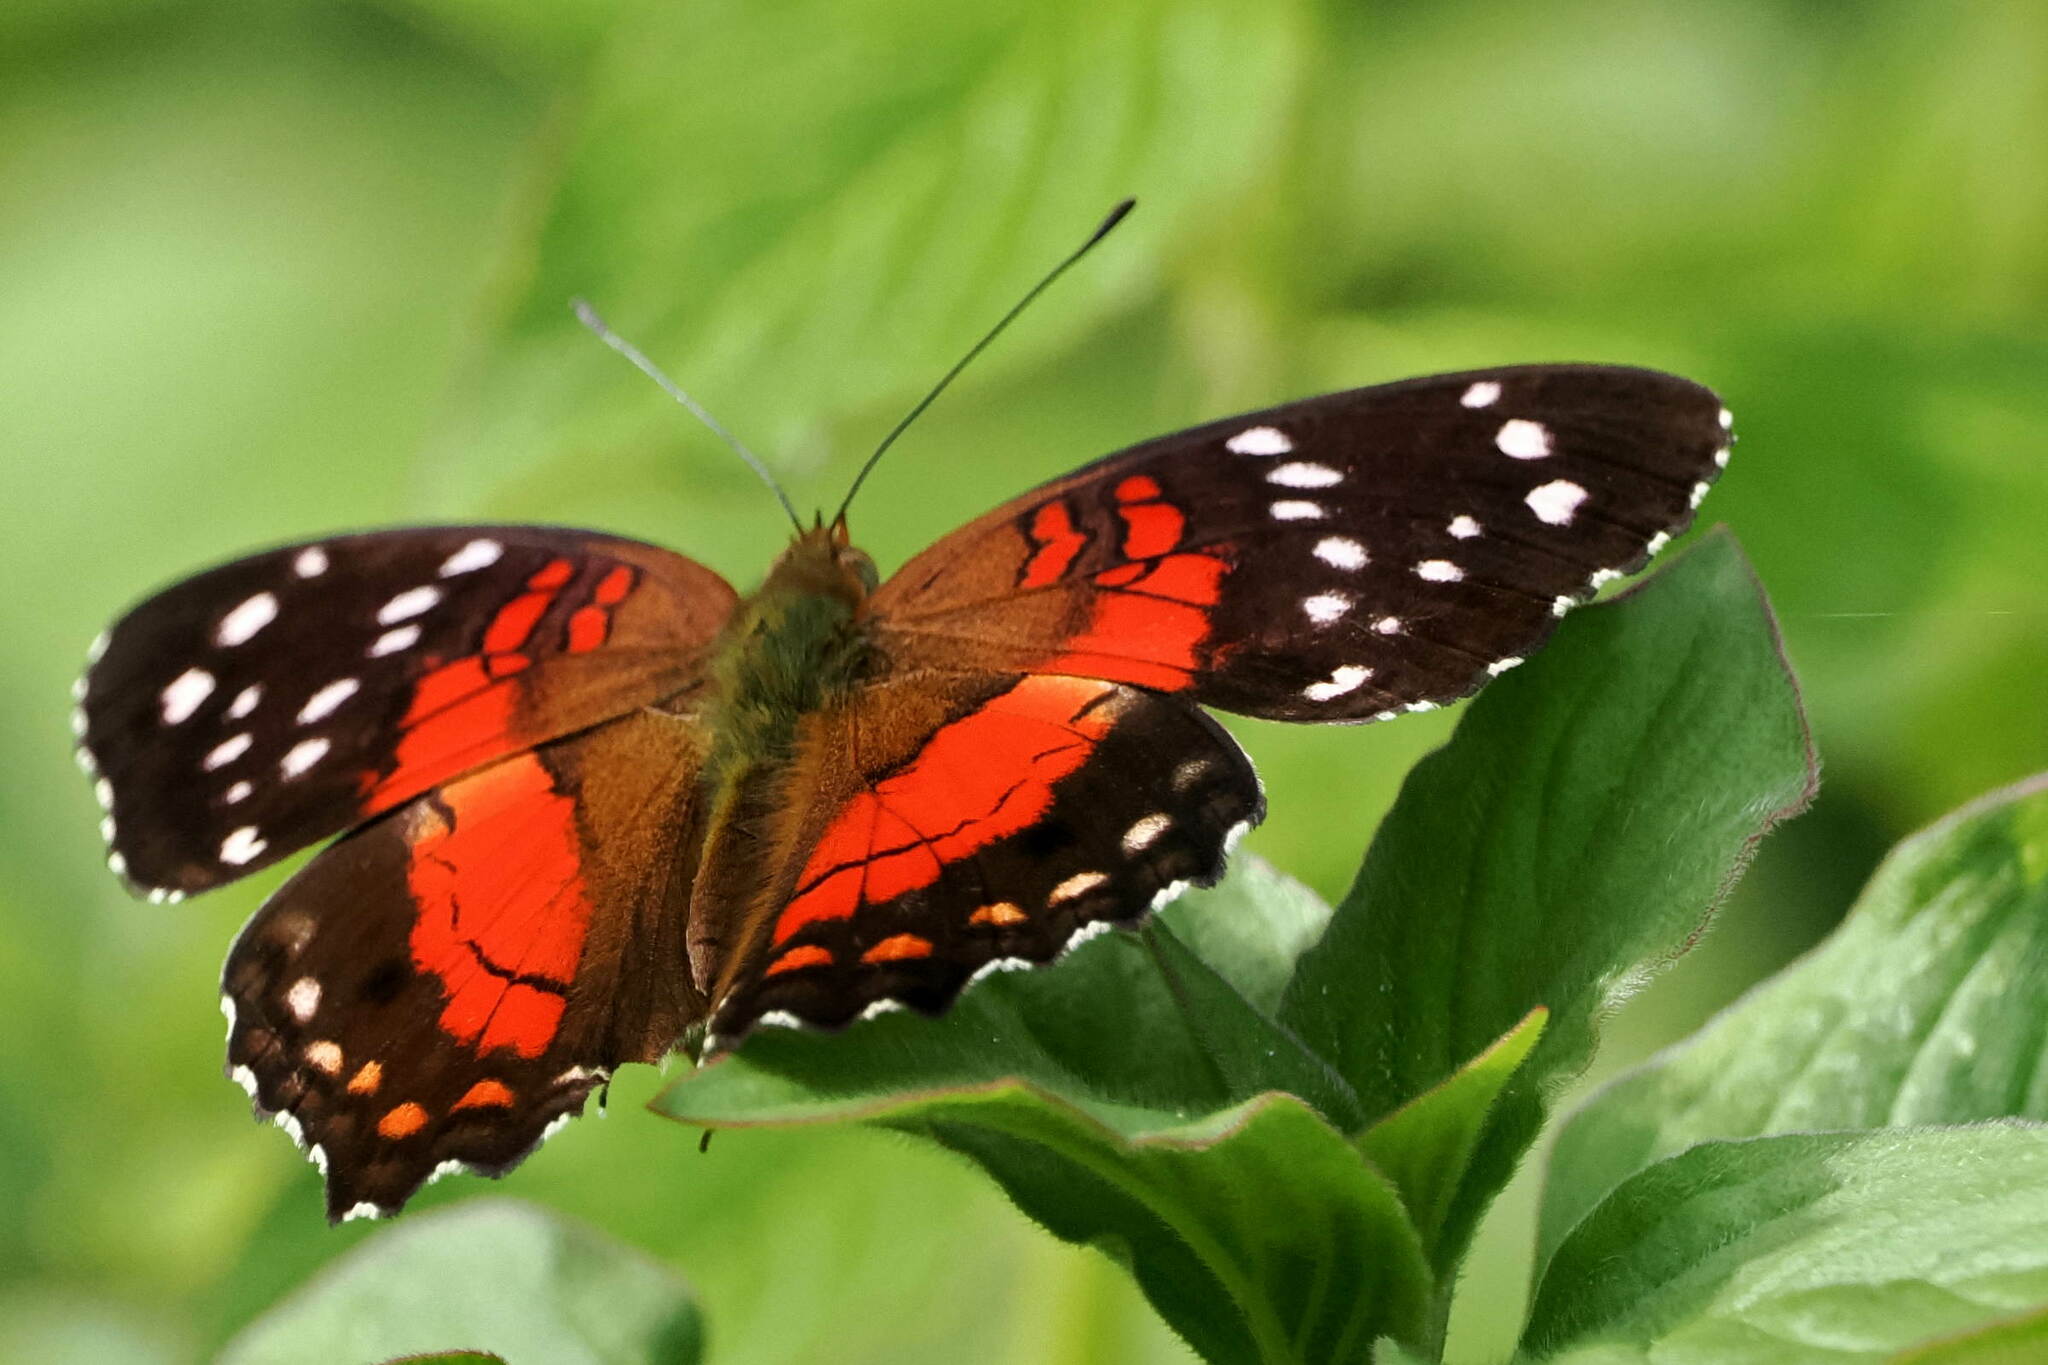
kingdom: Animalia
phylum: Arthropoda
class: Insecta
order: Lepidoptera
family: Nymphalidae
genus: Anartia
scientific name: Anartia amathea
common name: Red peacock
